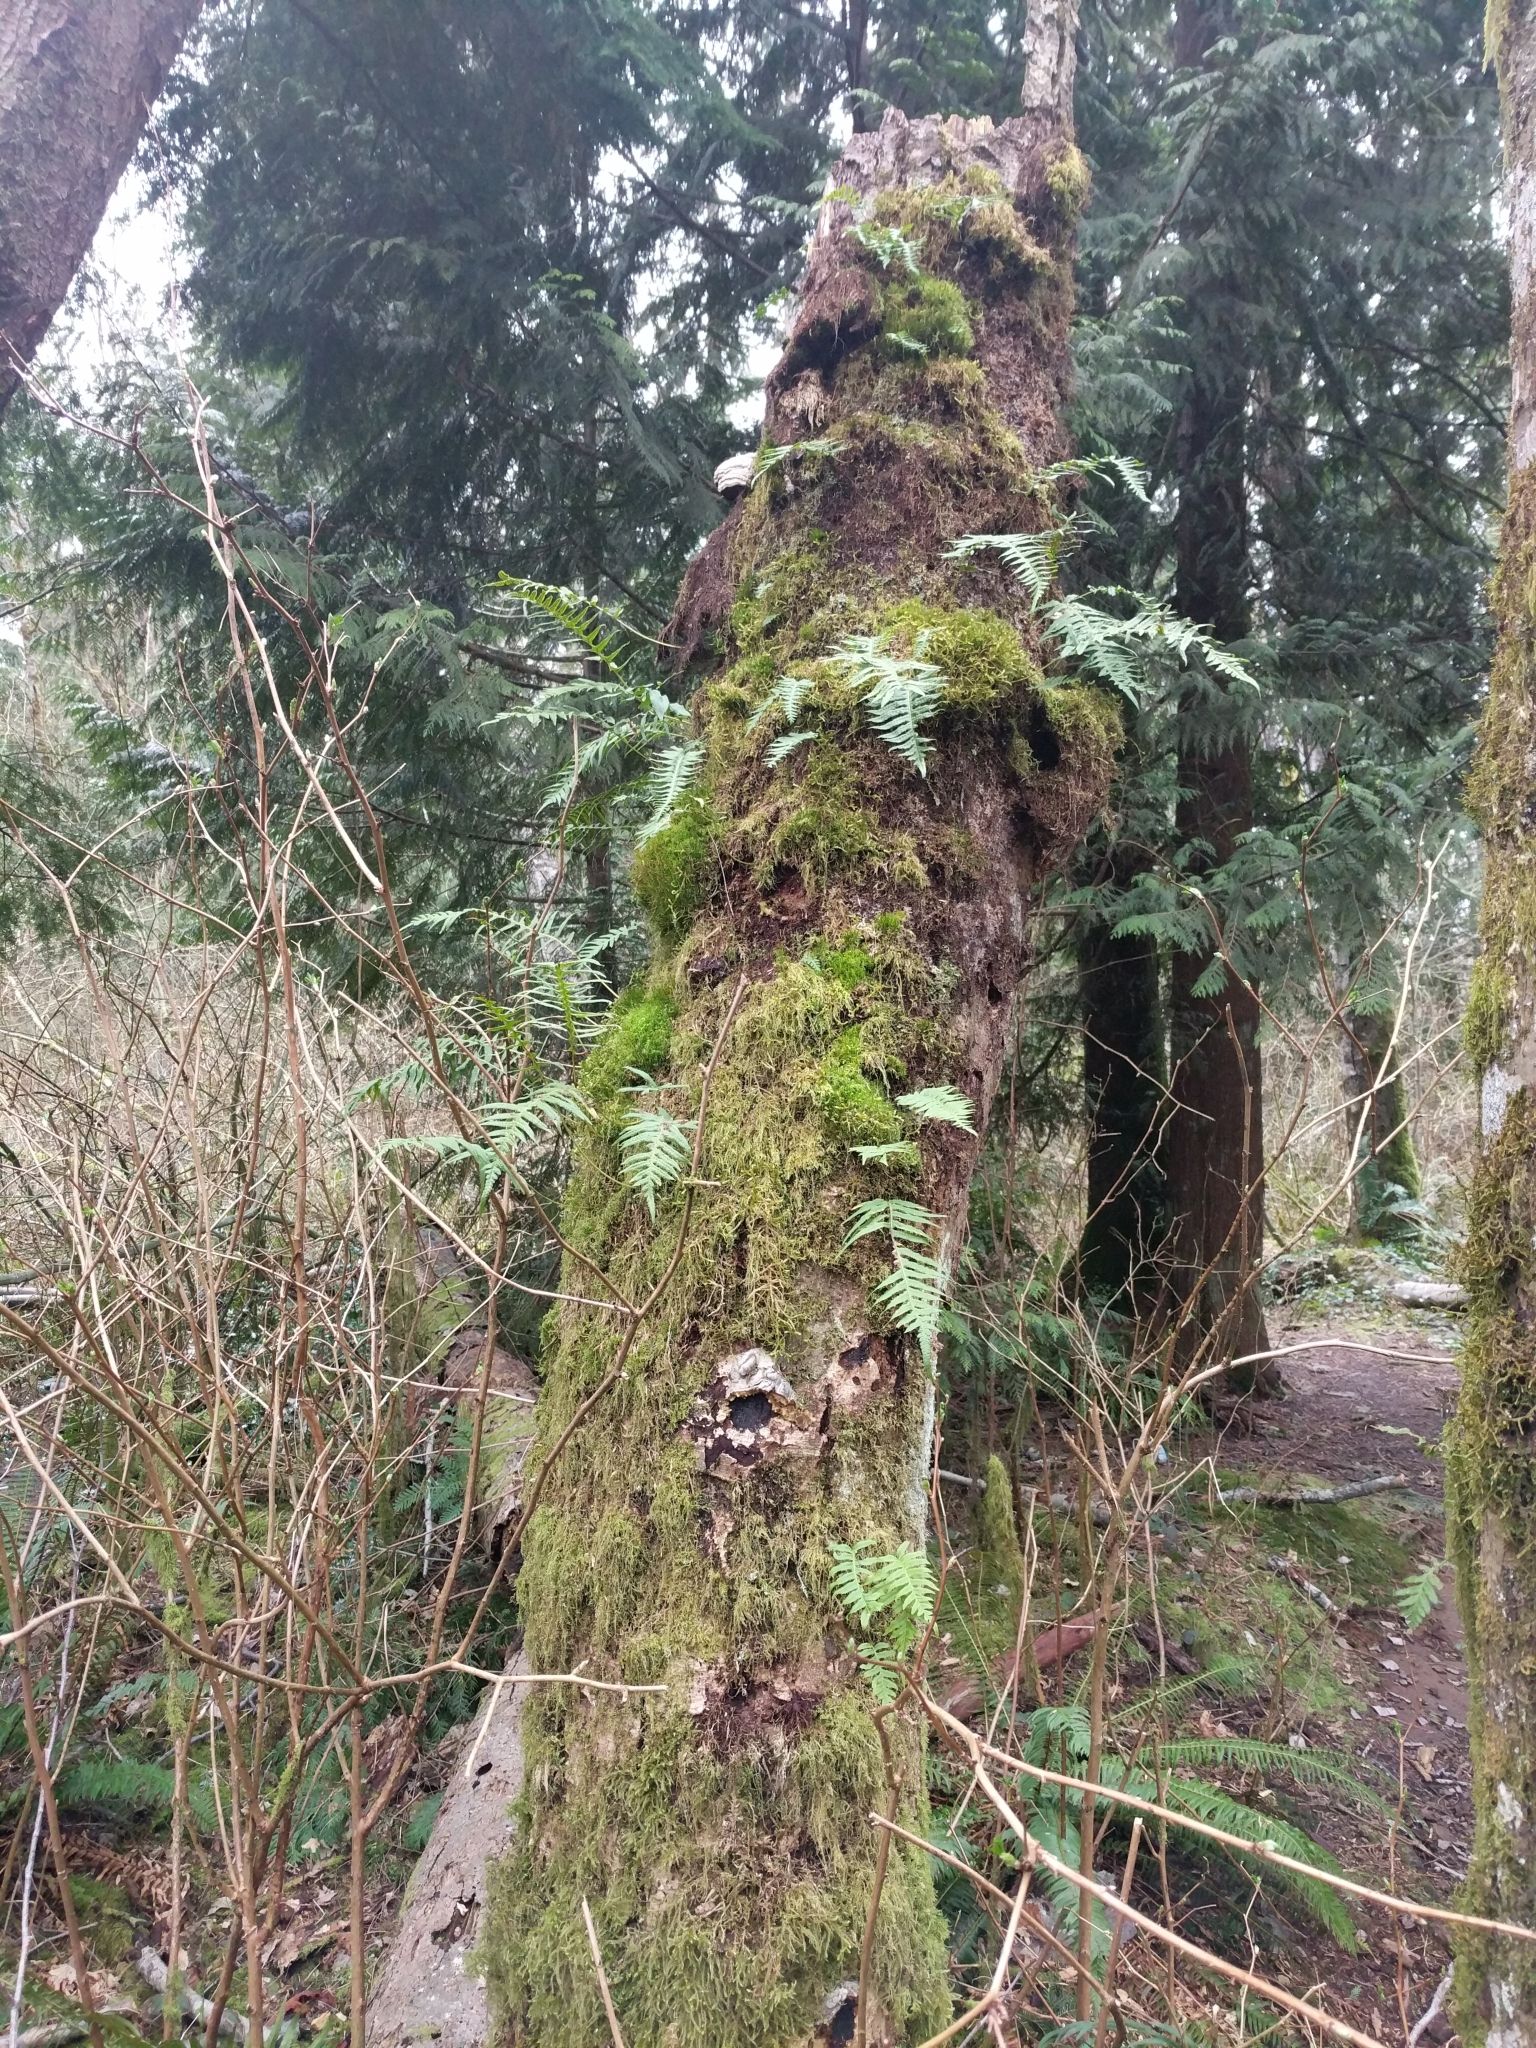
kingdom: Plantae
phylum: Tracheophyta
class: Polypodiopsida
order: Polypodiales
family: Polypodiaceae
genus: Polypodium
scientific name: Polypodium glycyrrhiza
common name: Licorice fern
